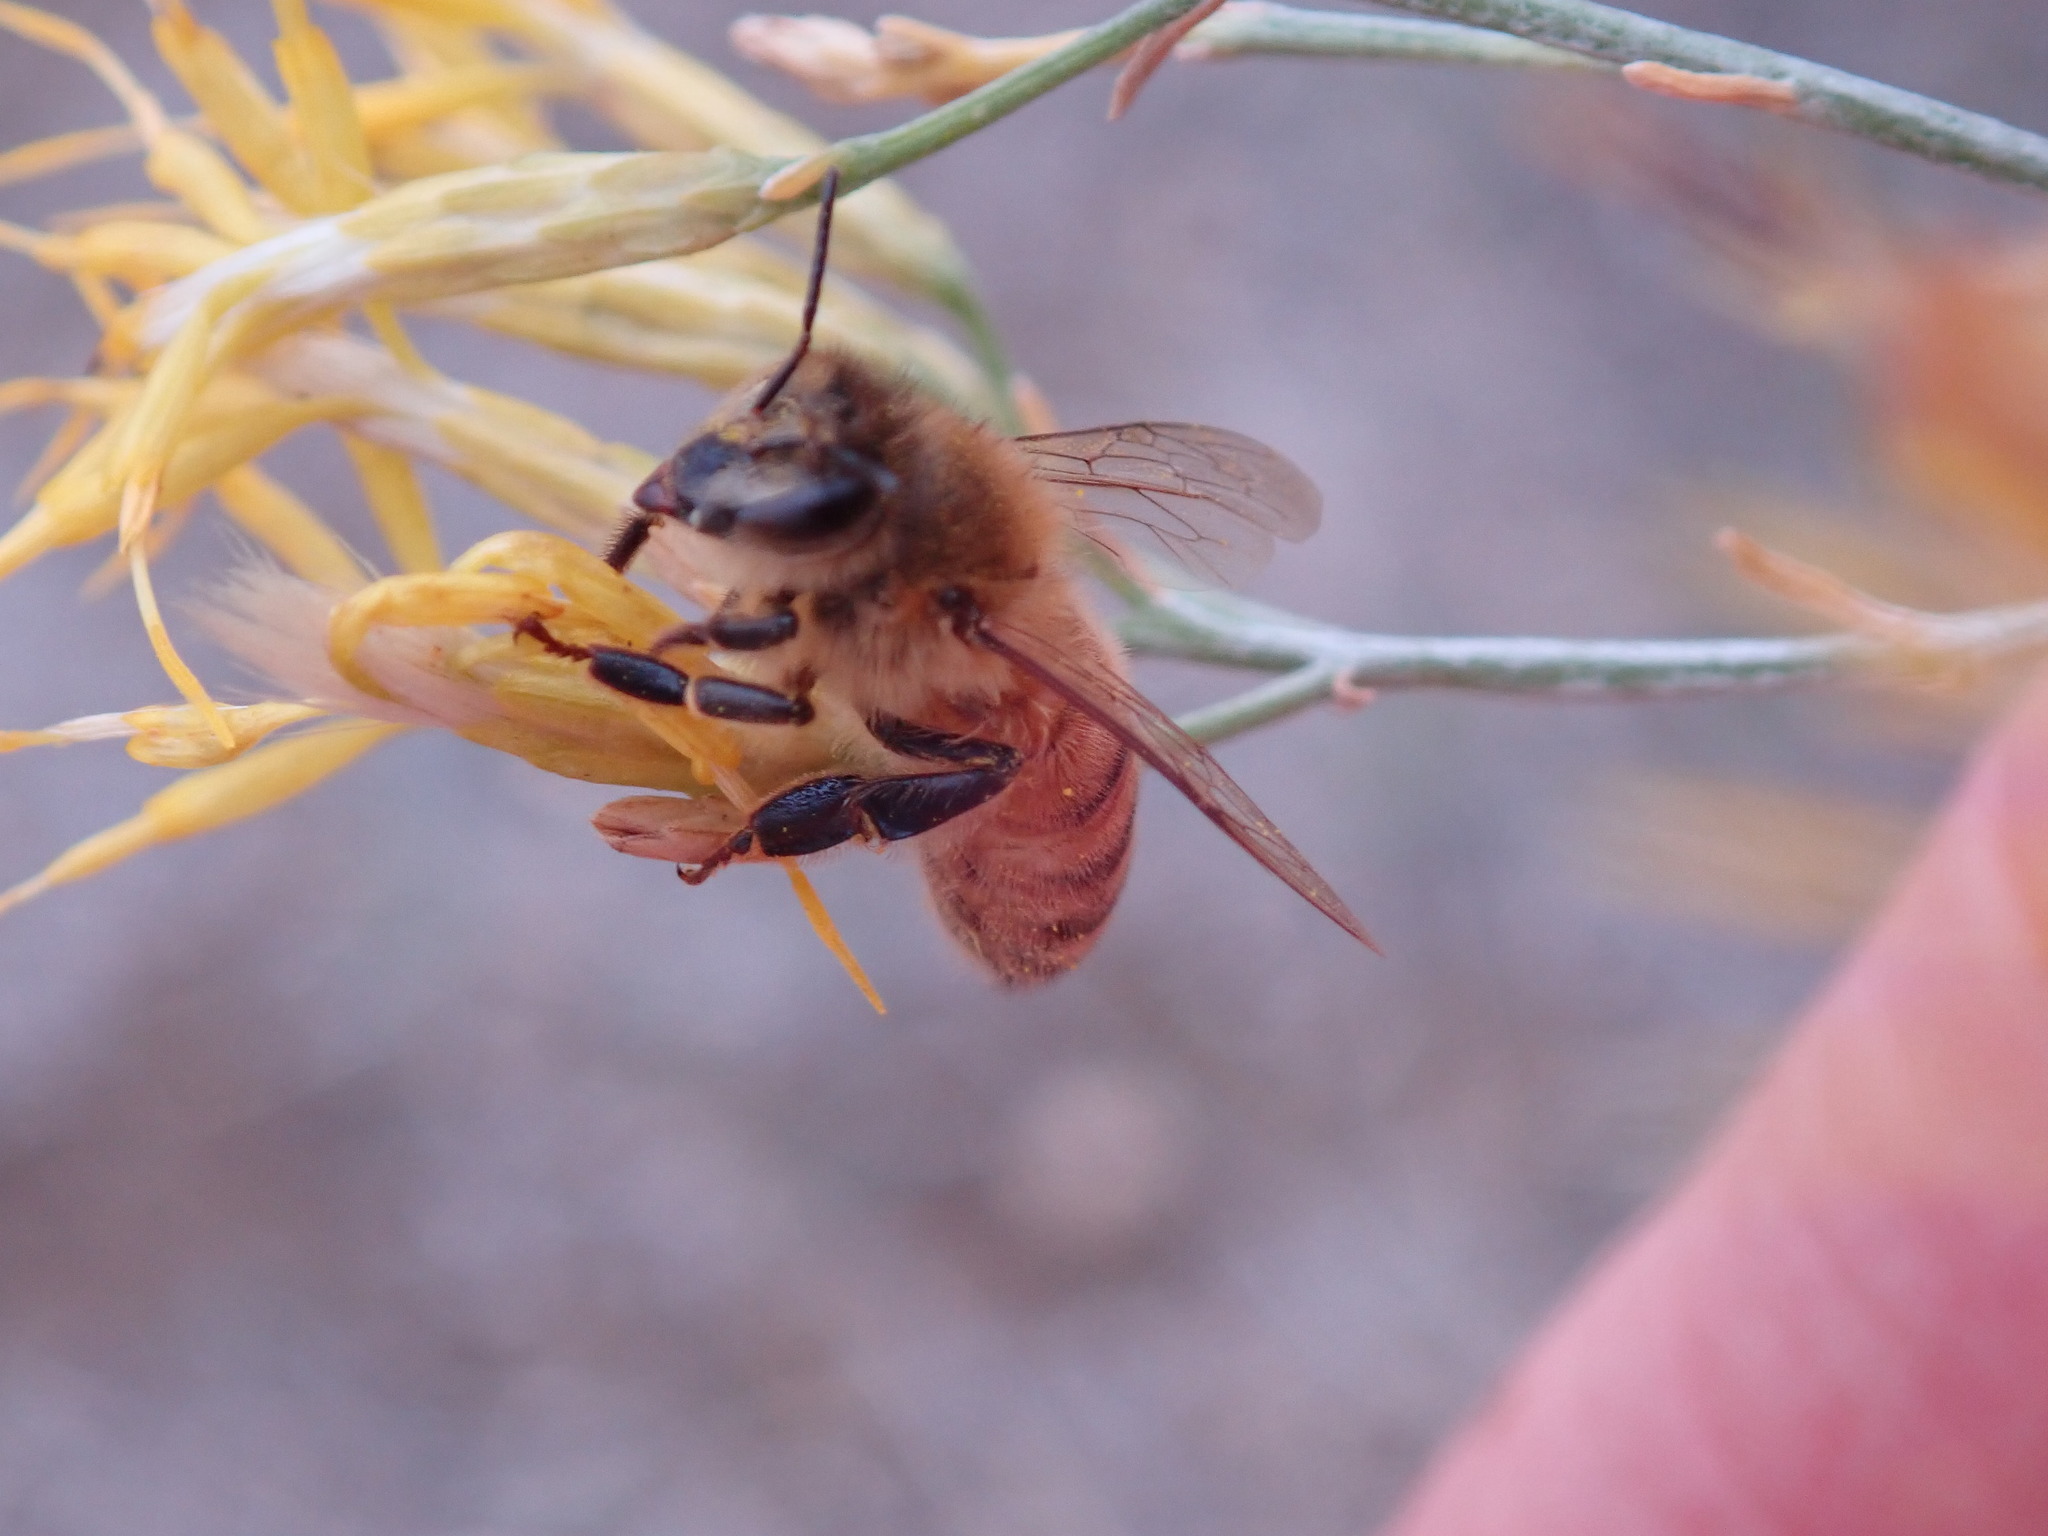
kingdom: Animalia
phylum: Arthropoda
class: Insecta
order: Hymenoptera
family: Apidae
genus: Apis
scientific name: Apis mellifera
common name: Honey bee
